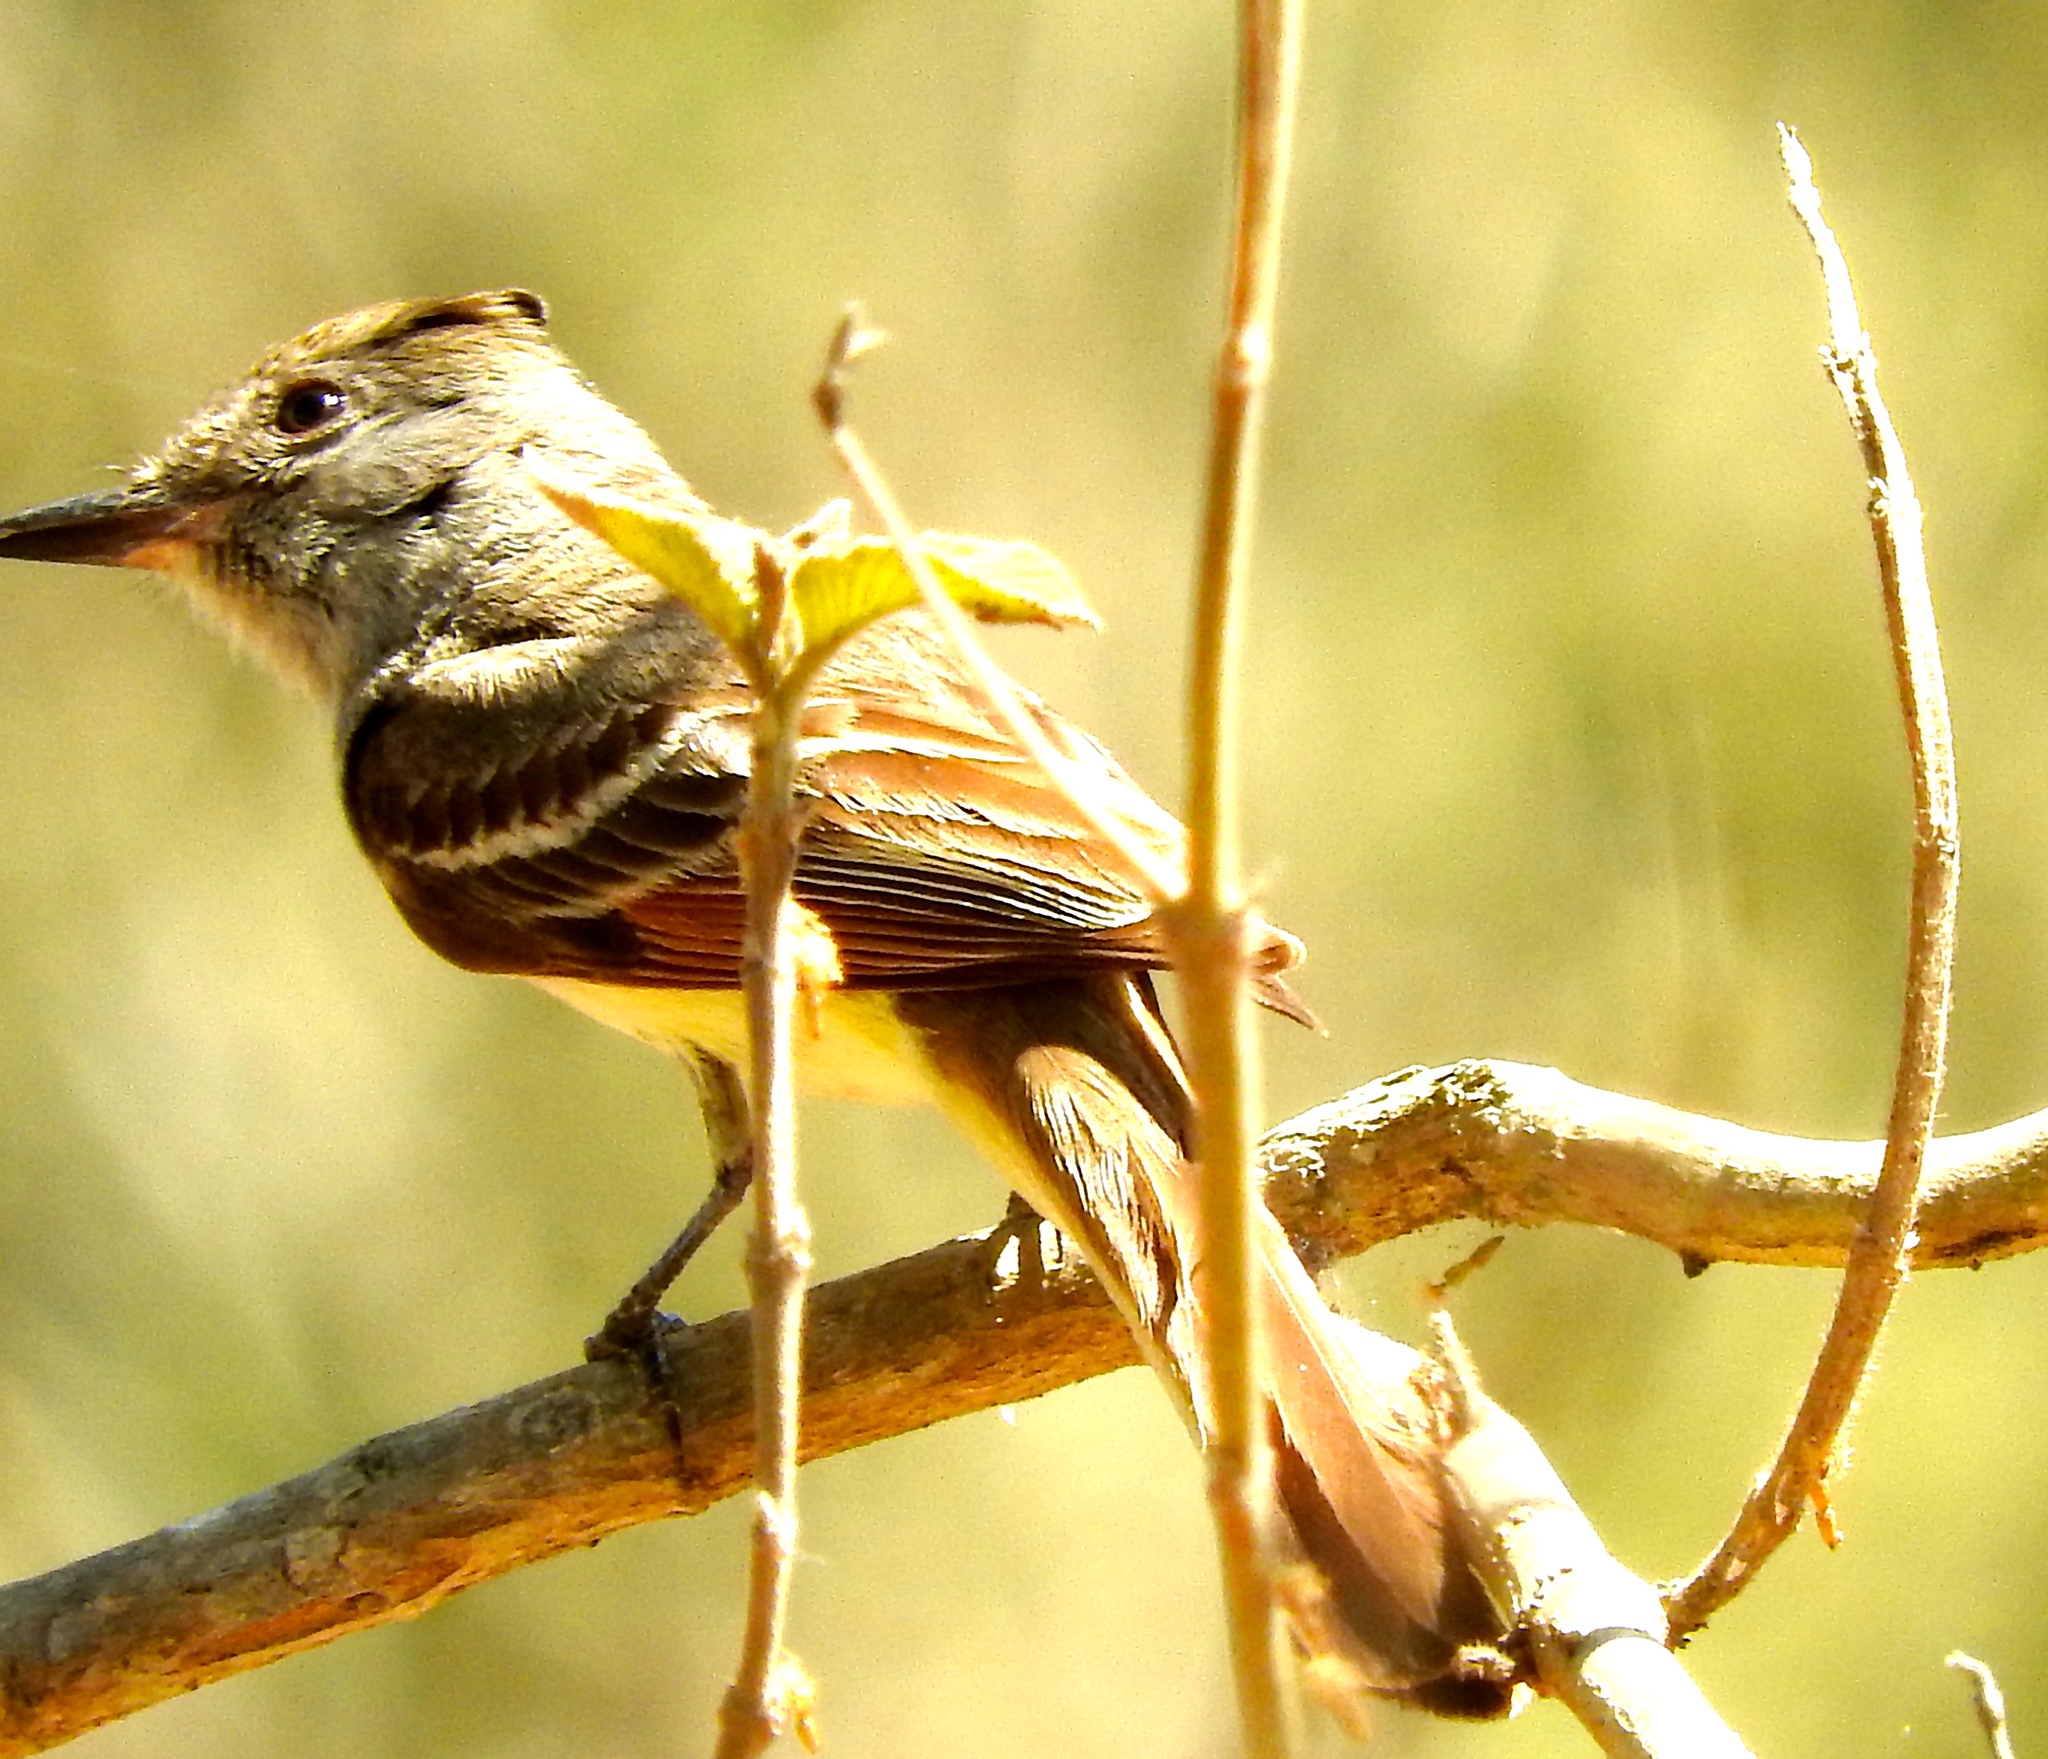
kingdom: Animalia
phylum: Chordata
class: Aves
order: Passeriformes
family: Tyrannidae
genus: Myiarchus
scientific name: Myiarchus tuberculifer
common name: Dusky-capped flycatcher
